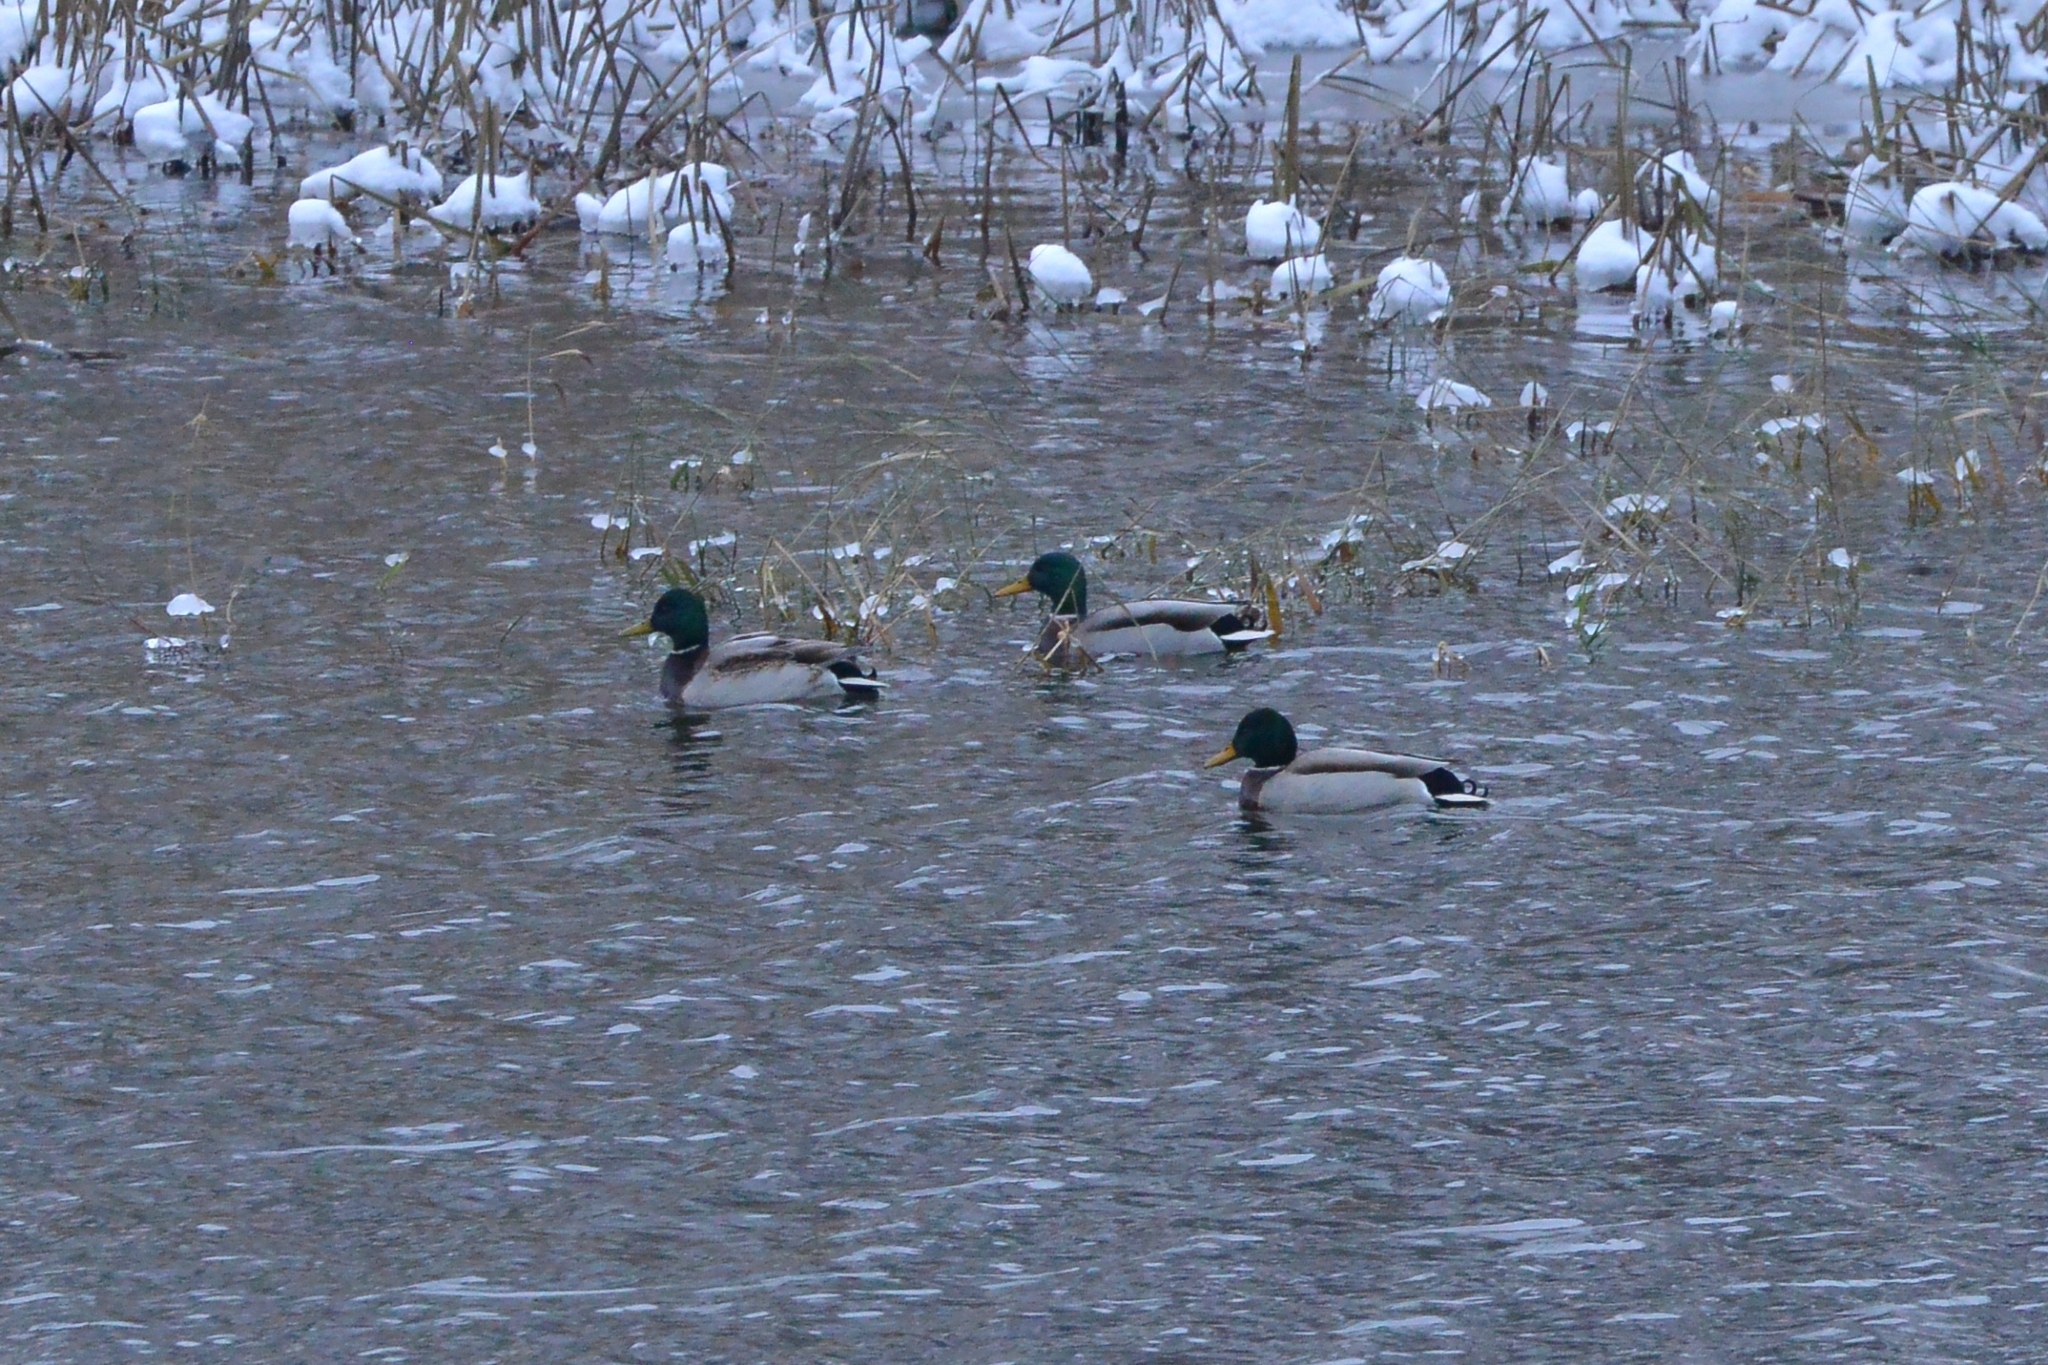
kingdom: Animalia
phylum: Chordata
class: Aves
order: Anseriformes
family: Anatidae
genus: Anas
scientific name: Anas platyrhynchos
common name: Mallard
